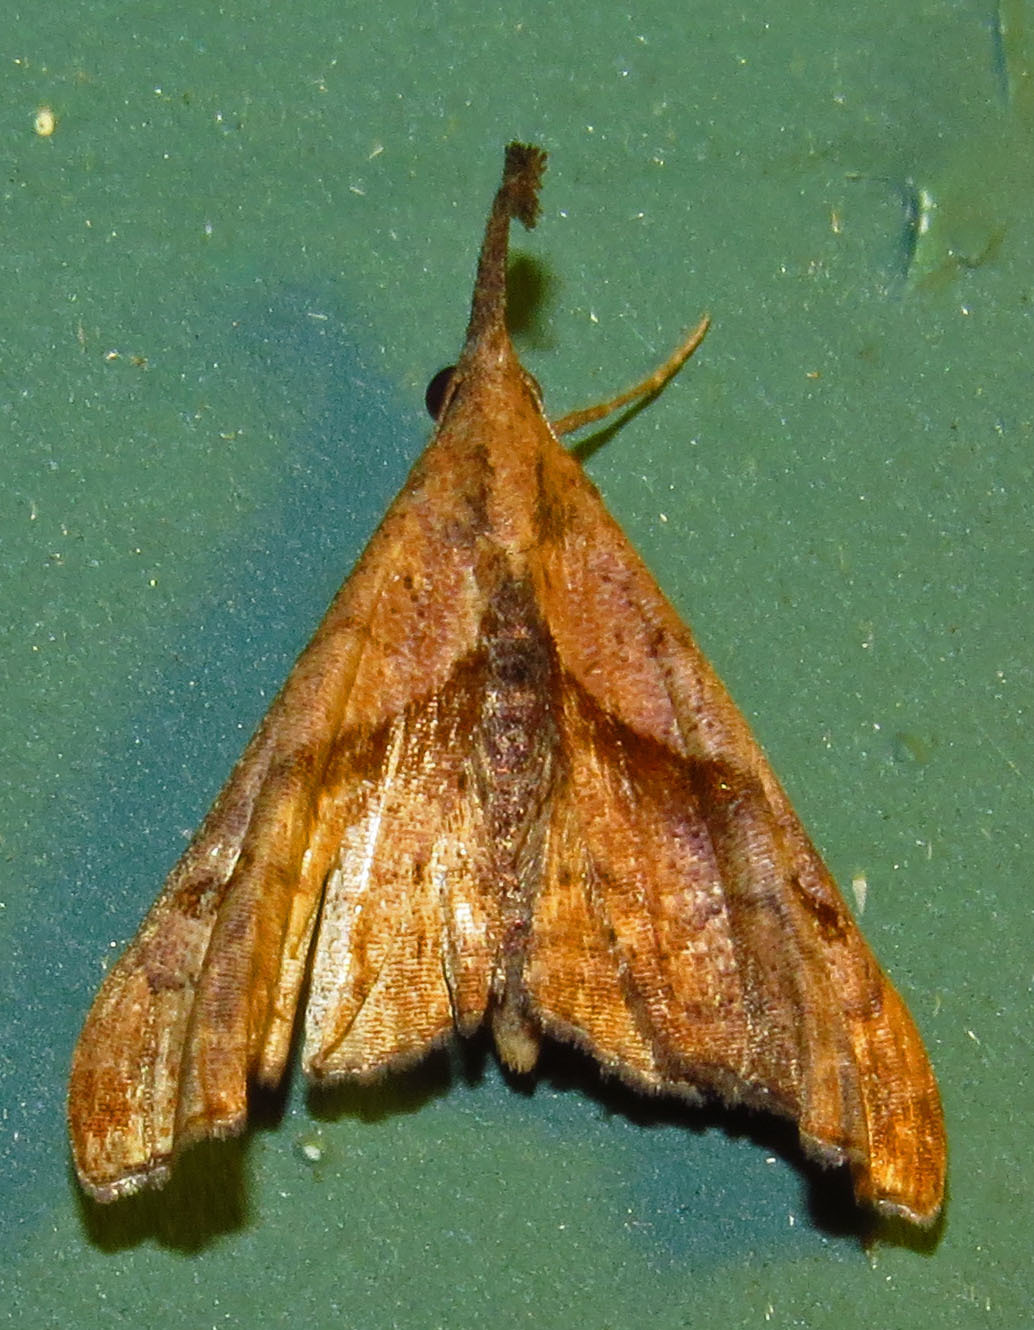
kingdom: Animalia
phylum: Arthropoda
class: Insecta
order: Lepidoptera
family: Erebidae
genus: Palthis
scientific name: Palthis angulalis
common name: Dark-spotted palthis moth
